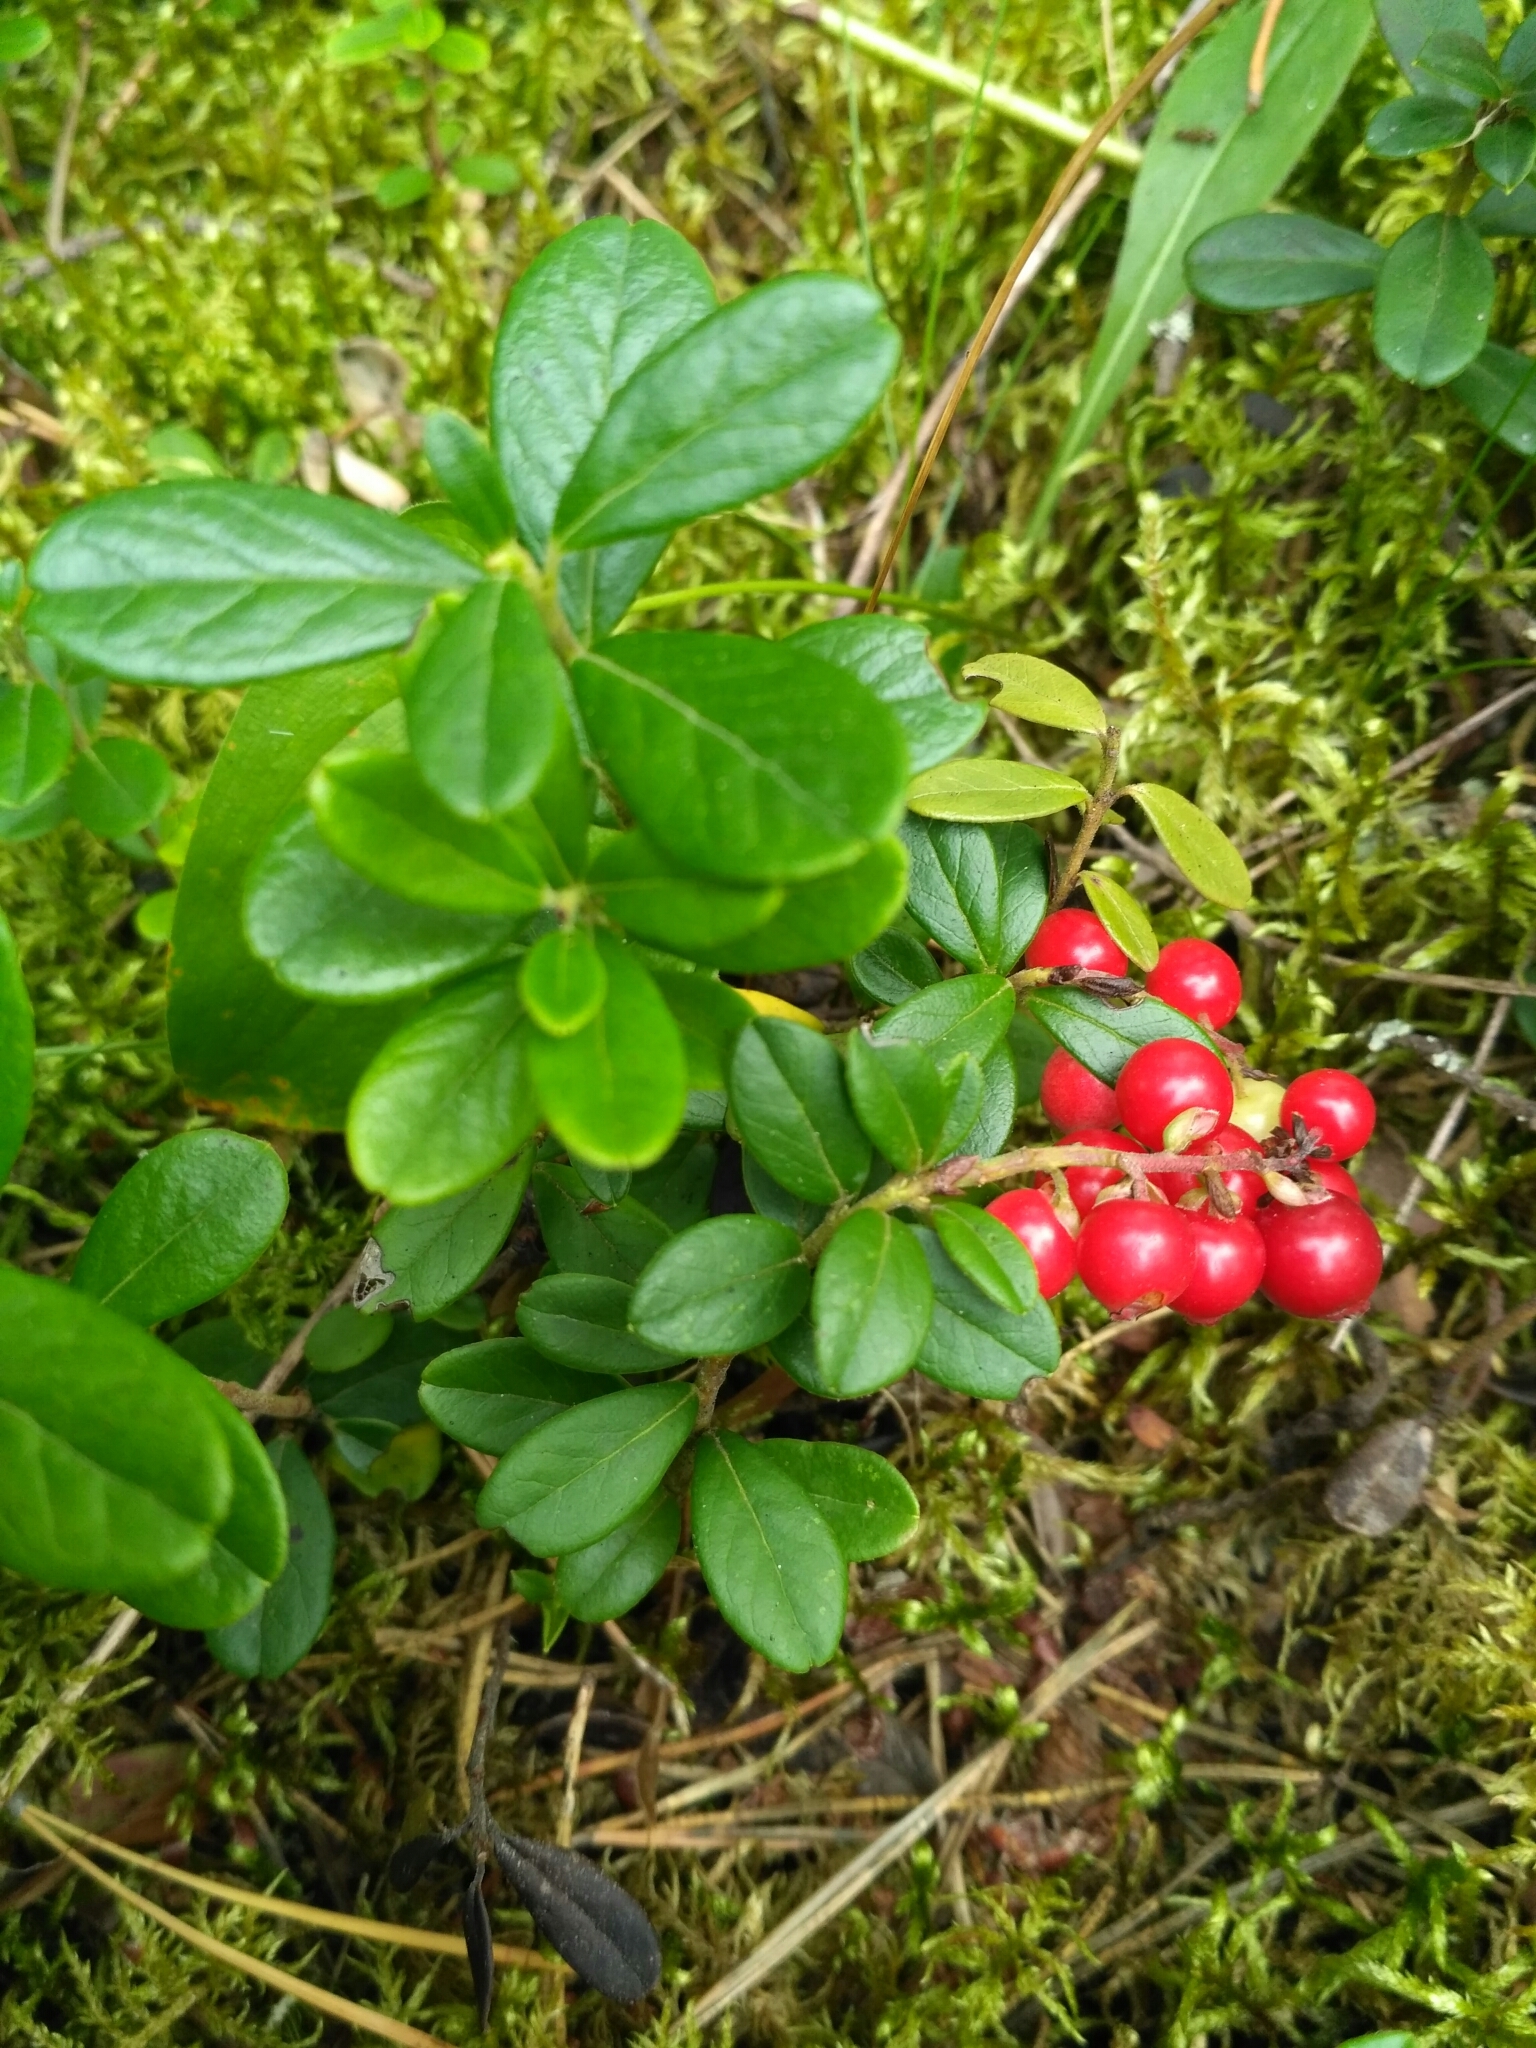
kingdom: Plantae
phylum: Tracheophyta
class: Magnoliopsida
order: Ericales
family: Ericaceae
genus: Vaccinium
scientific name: Vaccinium vitis-idaea
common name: Cowberry
